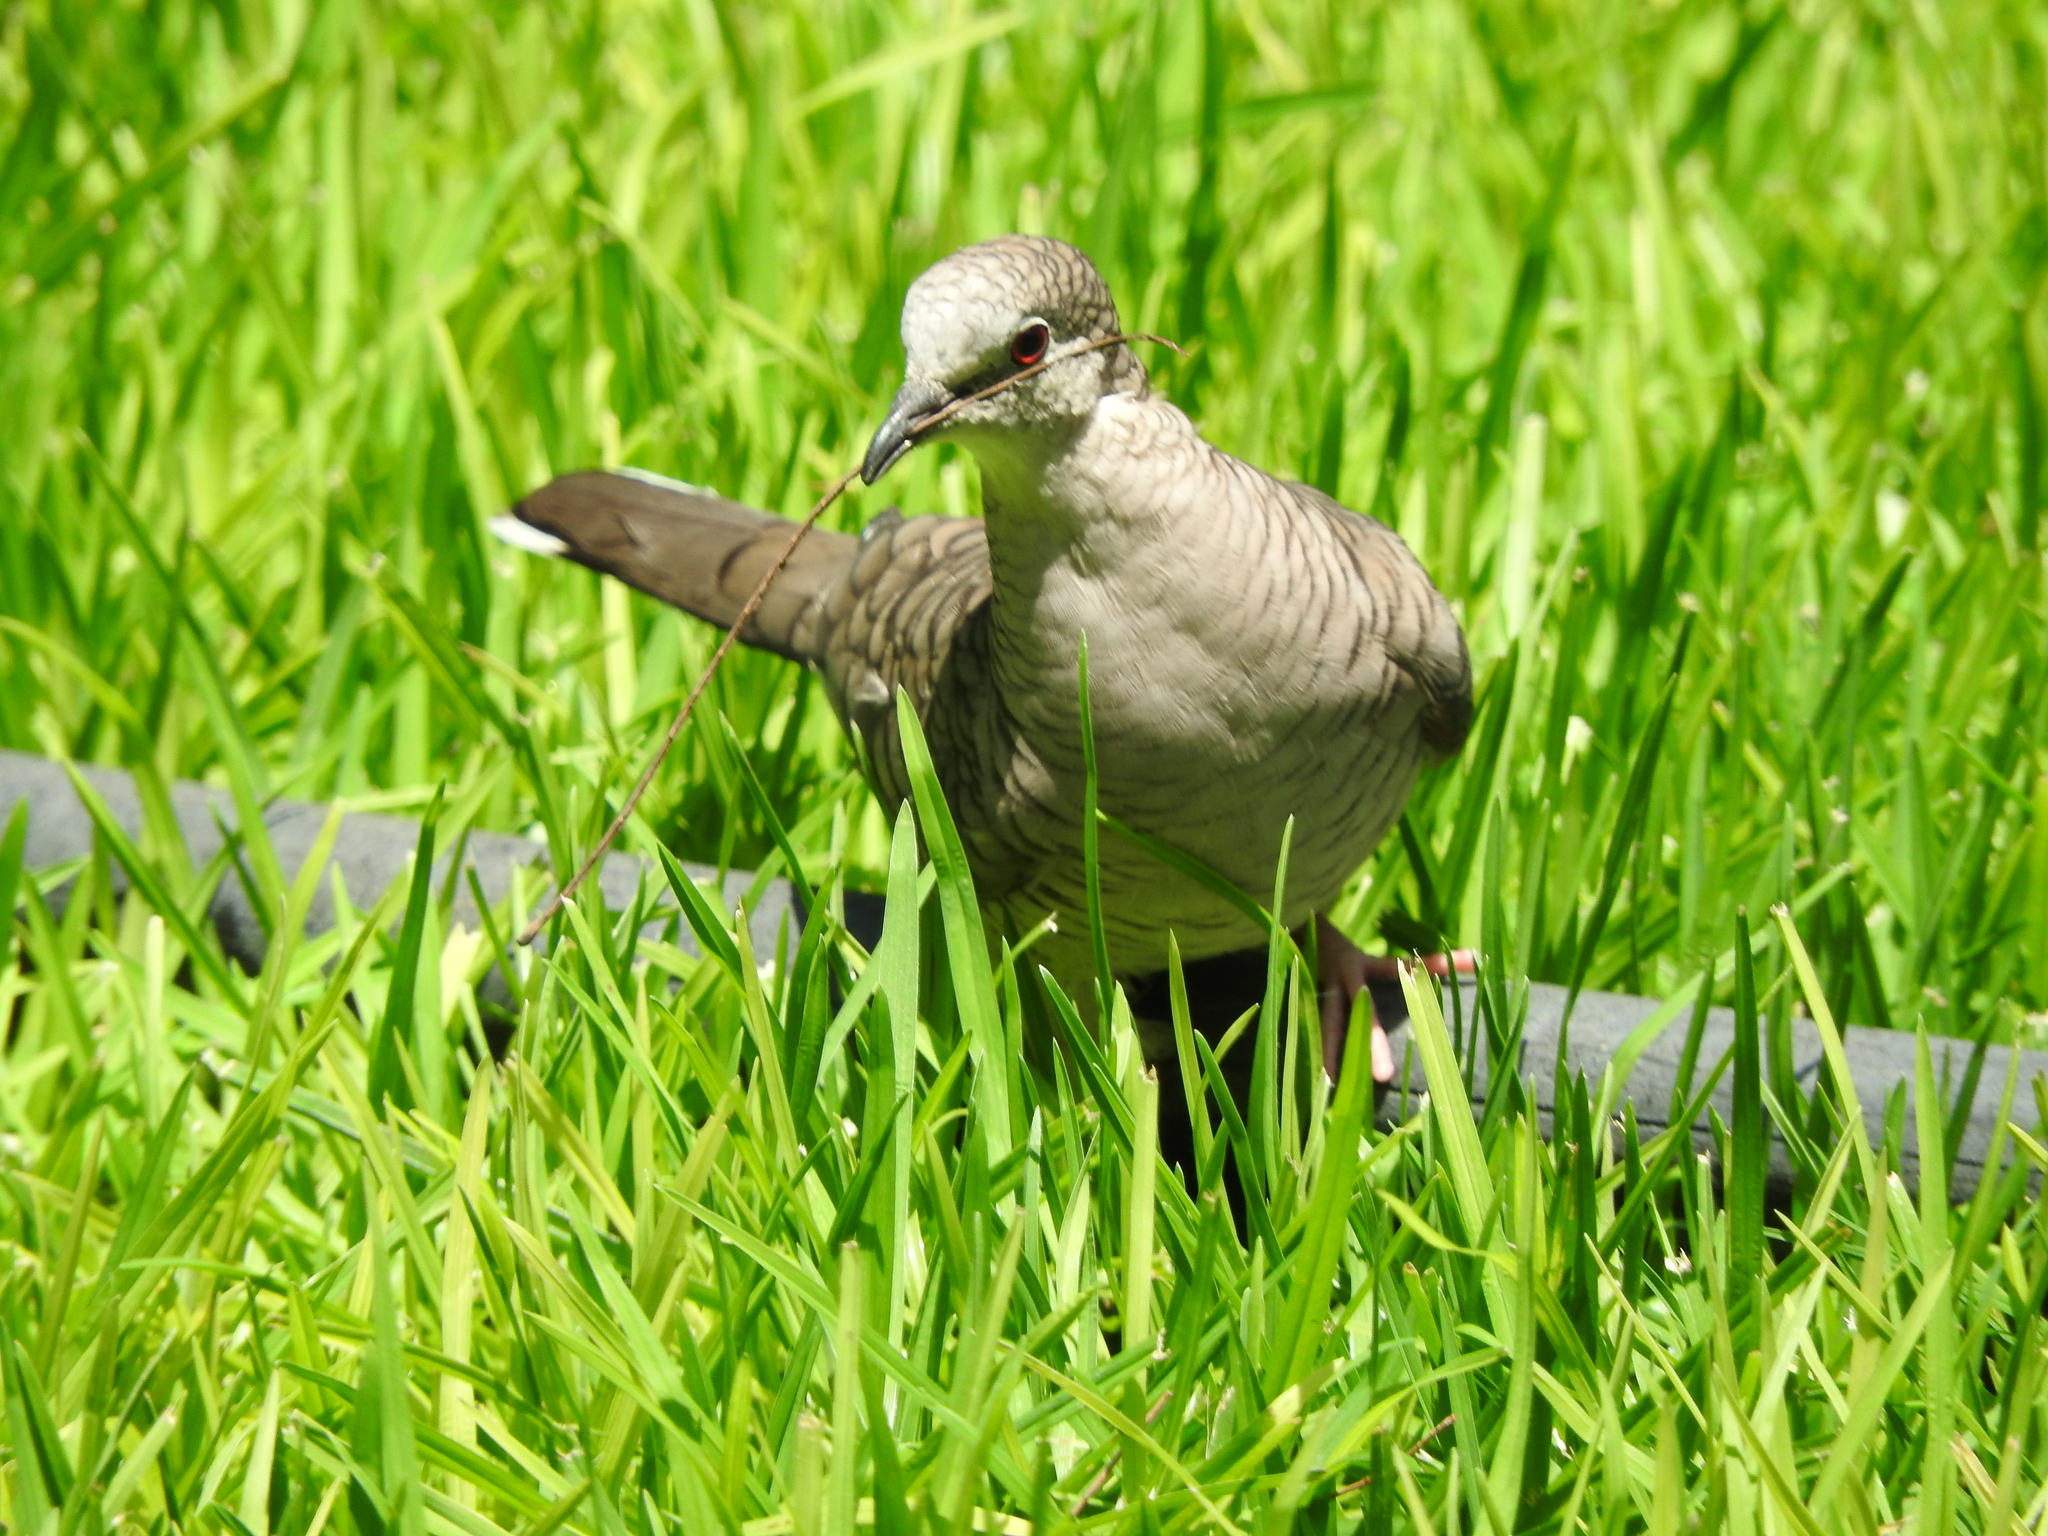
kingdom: Animalia
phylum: Chordata
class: Aves
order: Columbiformes
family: Columbidae
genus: Columbina
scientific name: Columbina inca
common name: Inca dove
